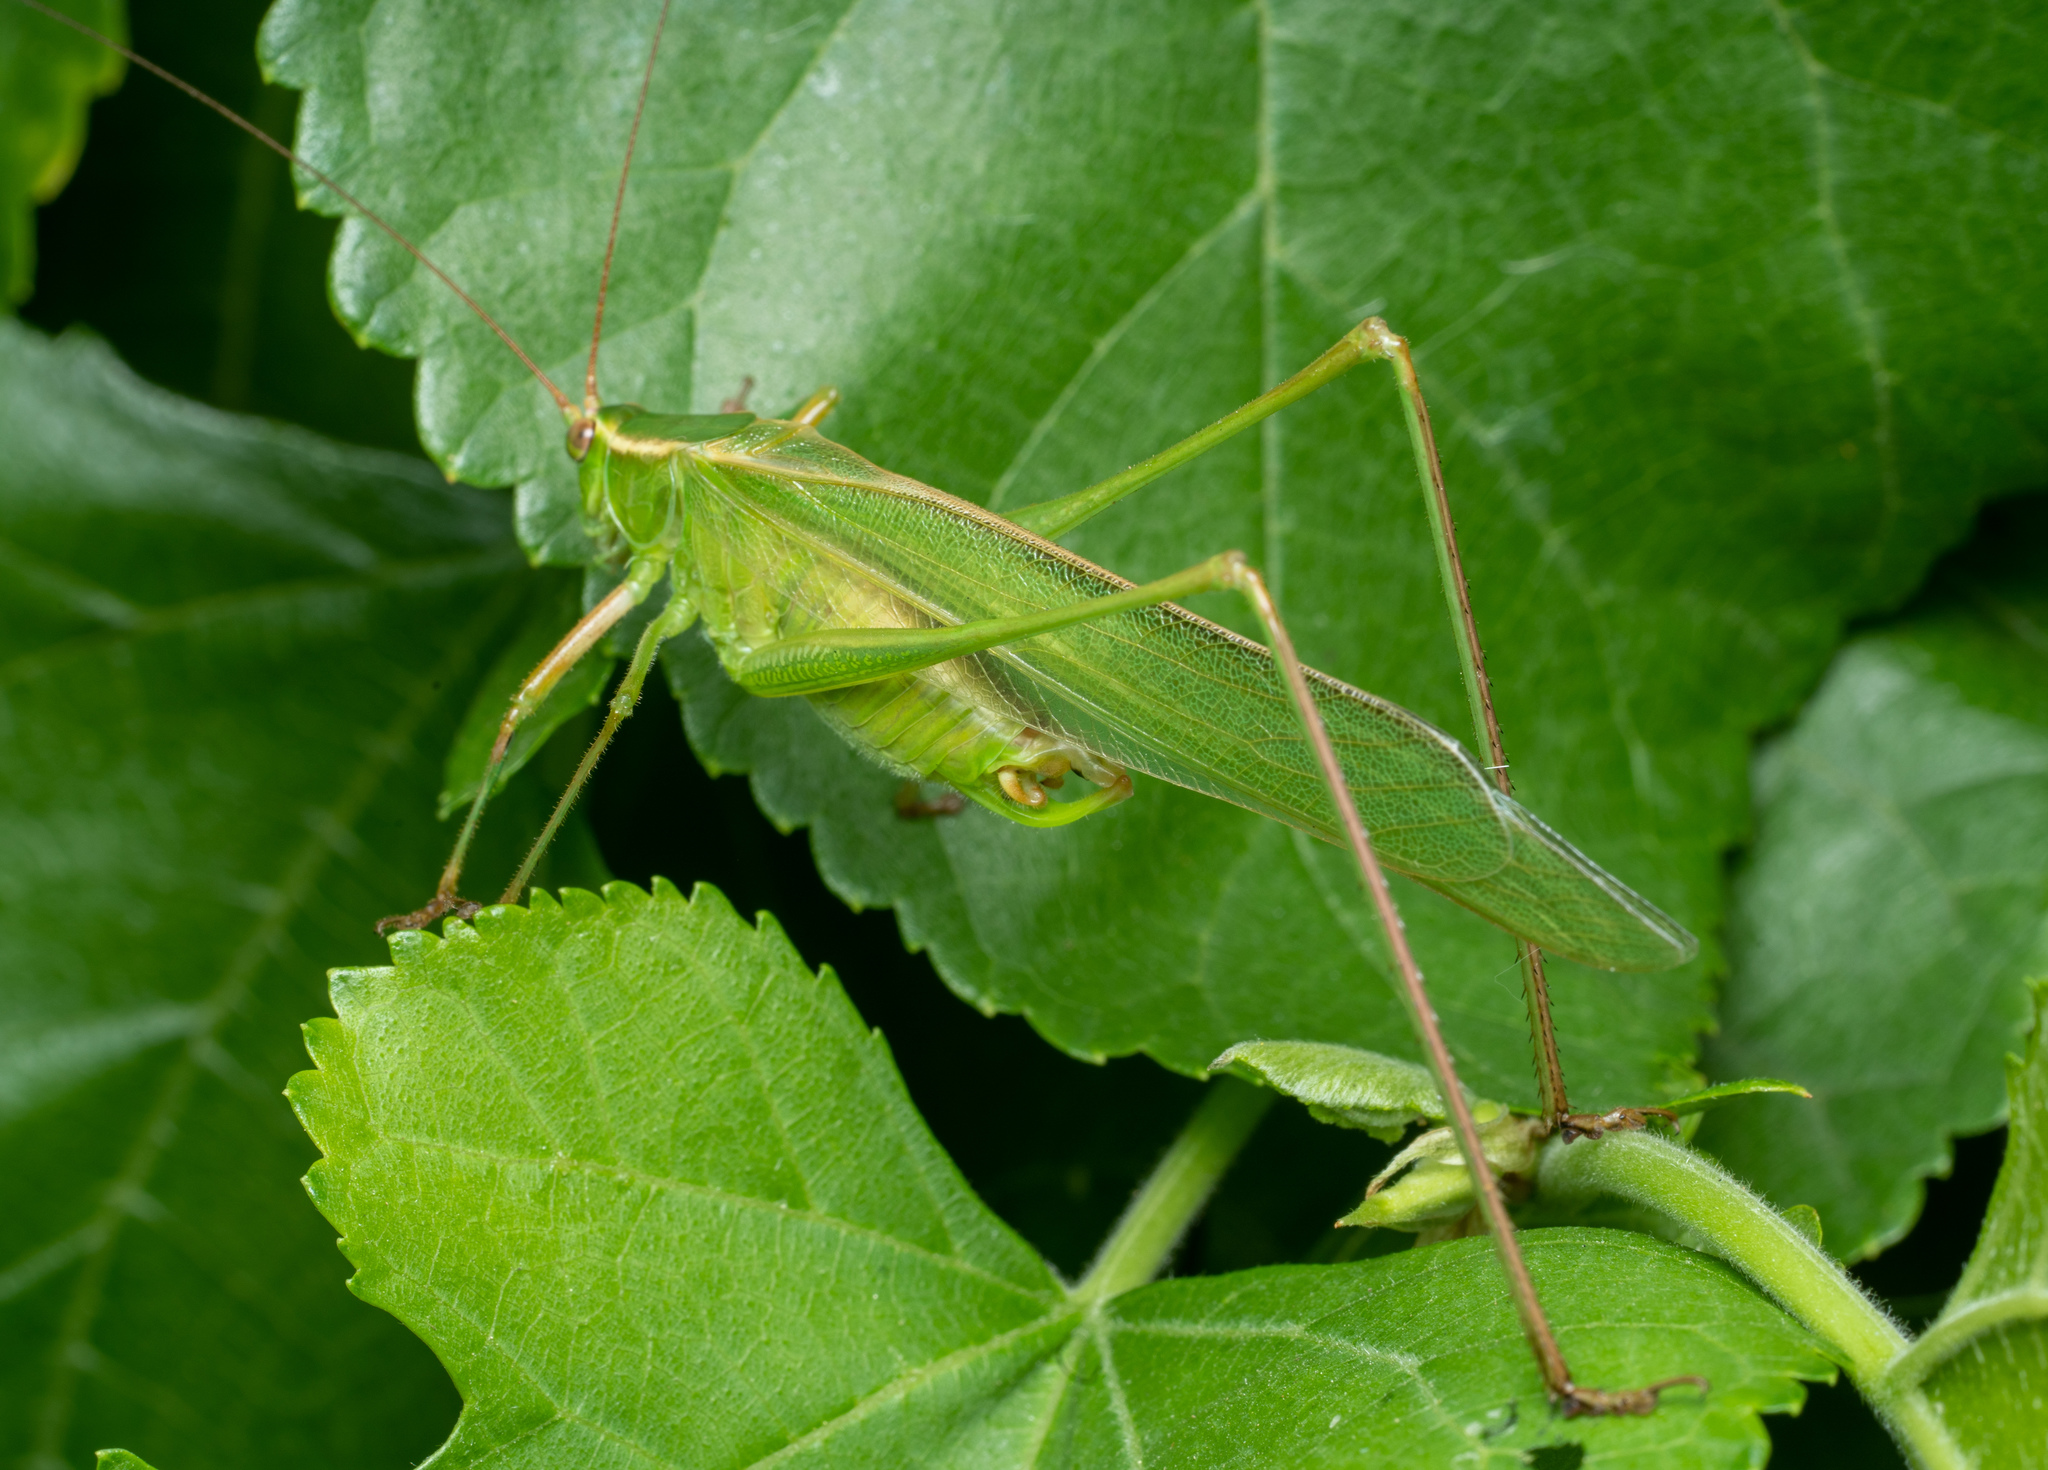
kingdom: Animalia
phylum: Arthropoda
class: Insecta
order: Orthoptera
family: Tettigoniidae
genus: Scudderia
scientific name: Scudderia mexicana
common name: Mexican bush katydid
